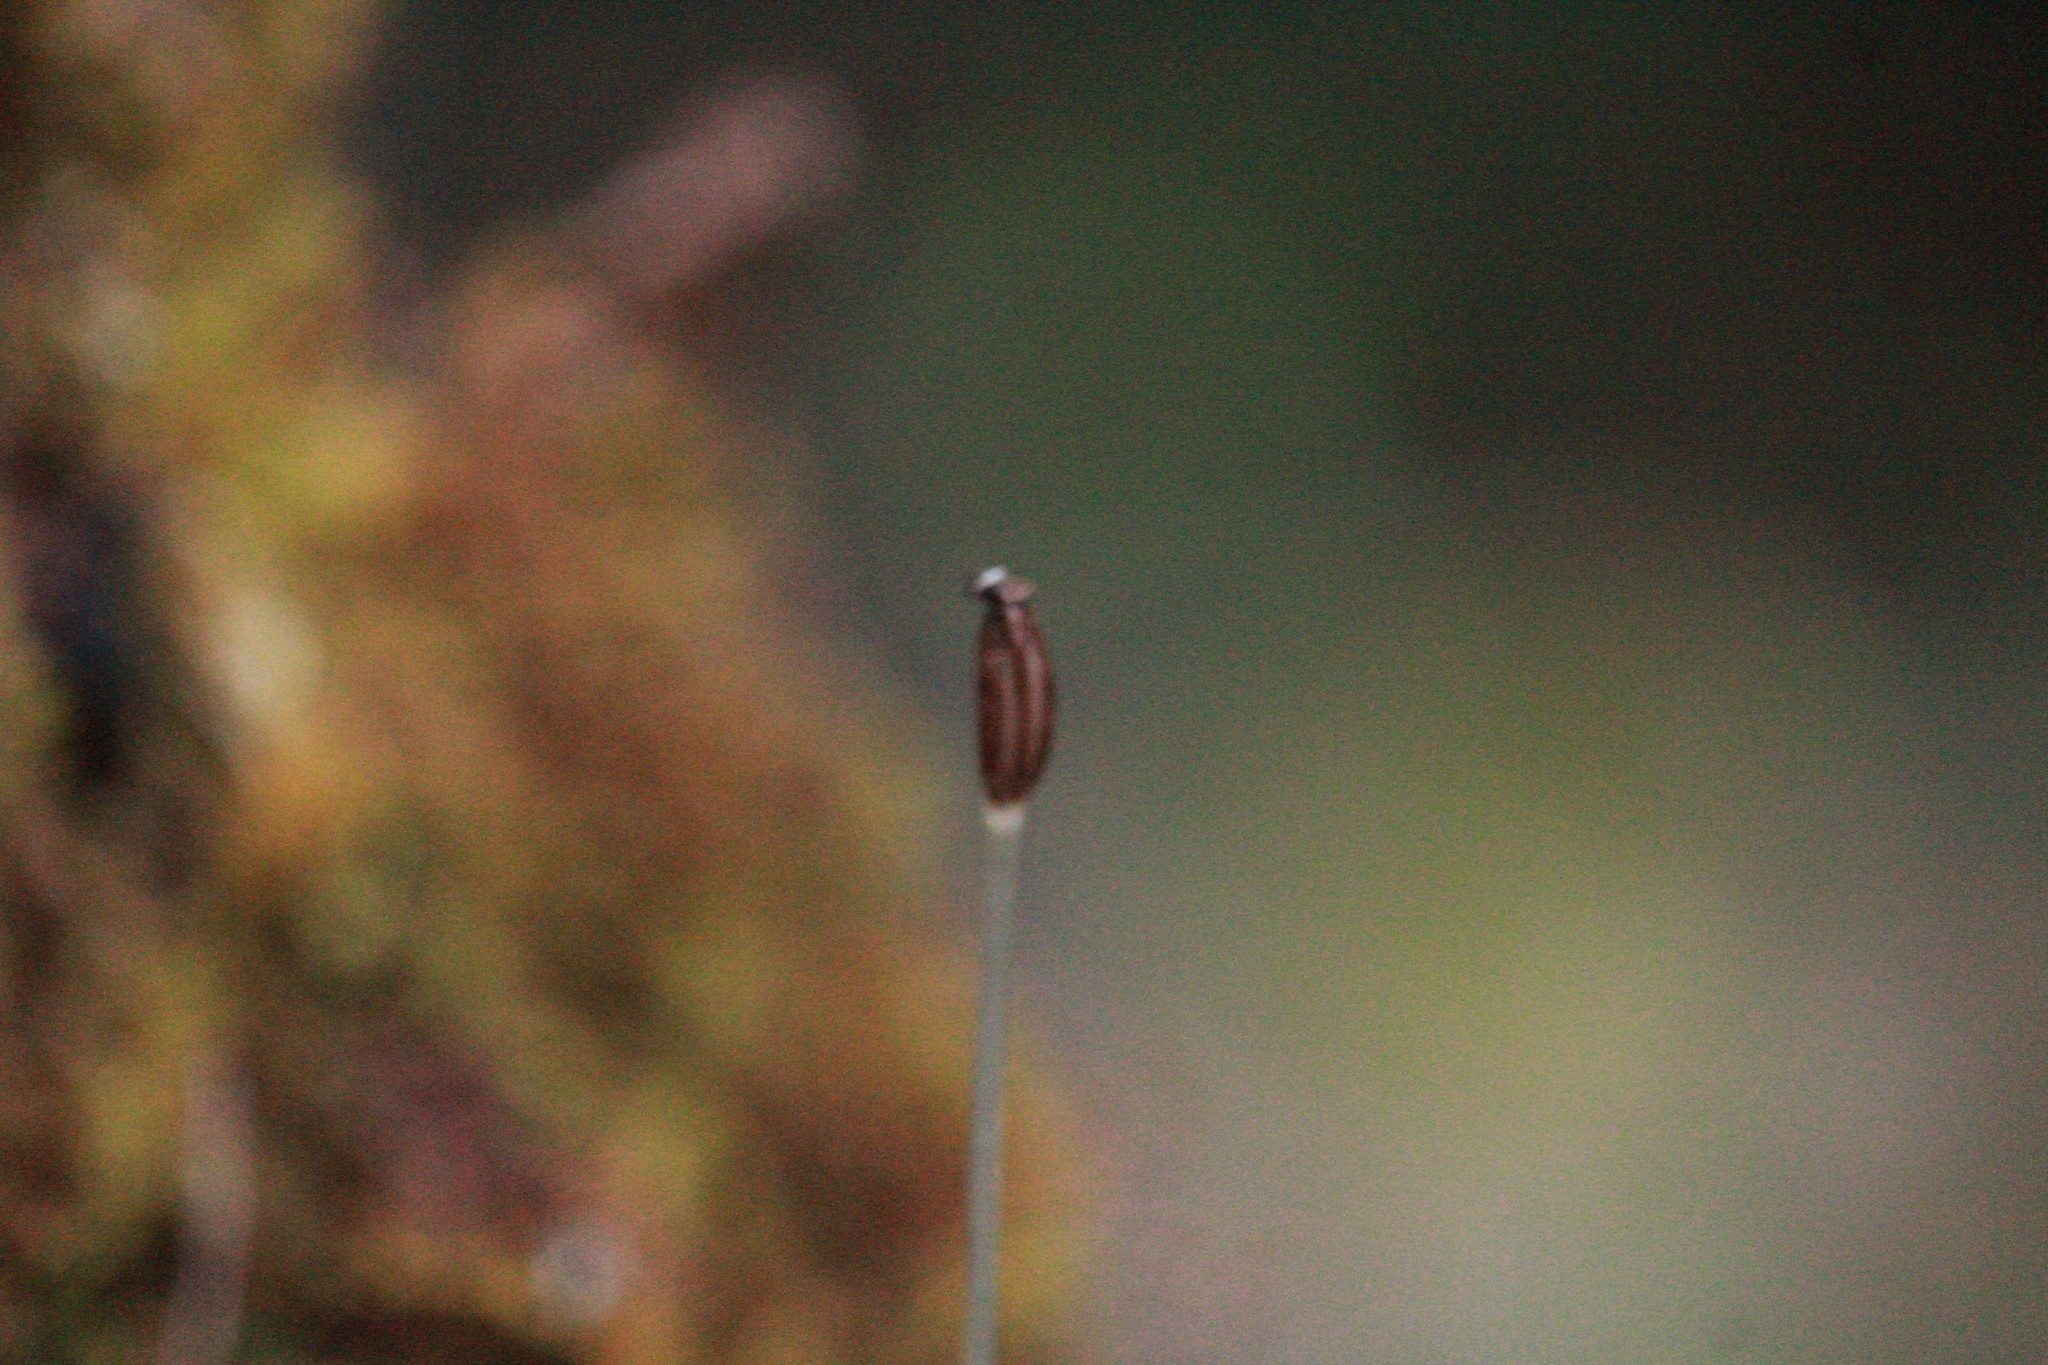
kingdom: Plantae
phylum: Tracheophyta
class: Liliopsida
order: Asparagales
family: Orchidaceae
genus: Corybas
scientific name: Corybas recurvus
